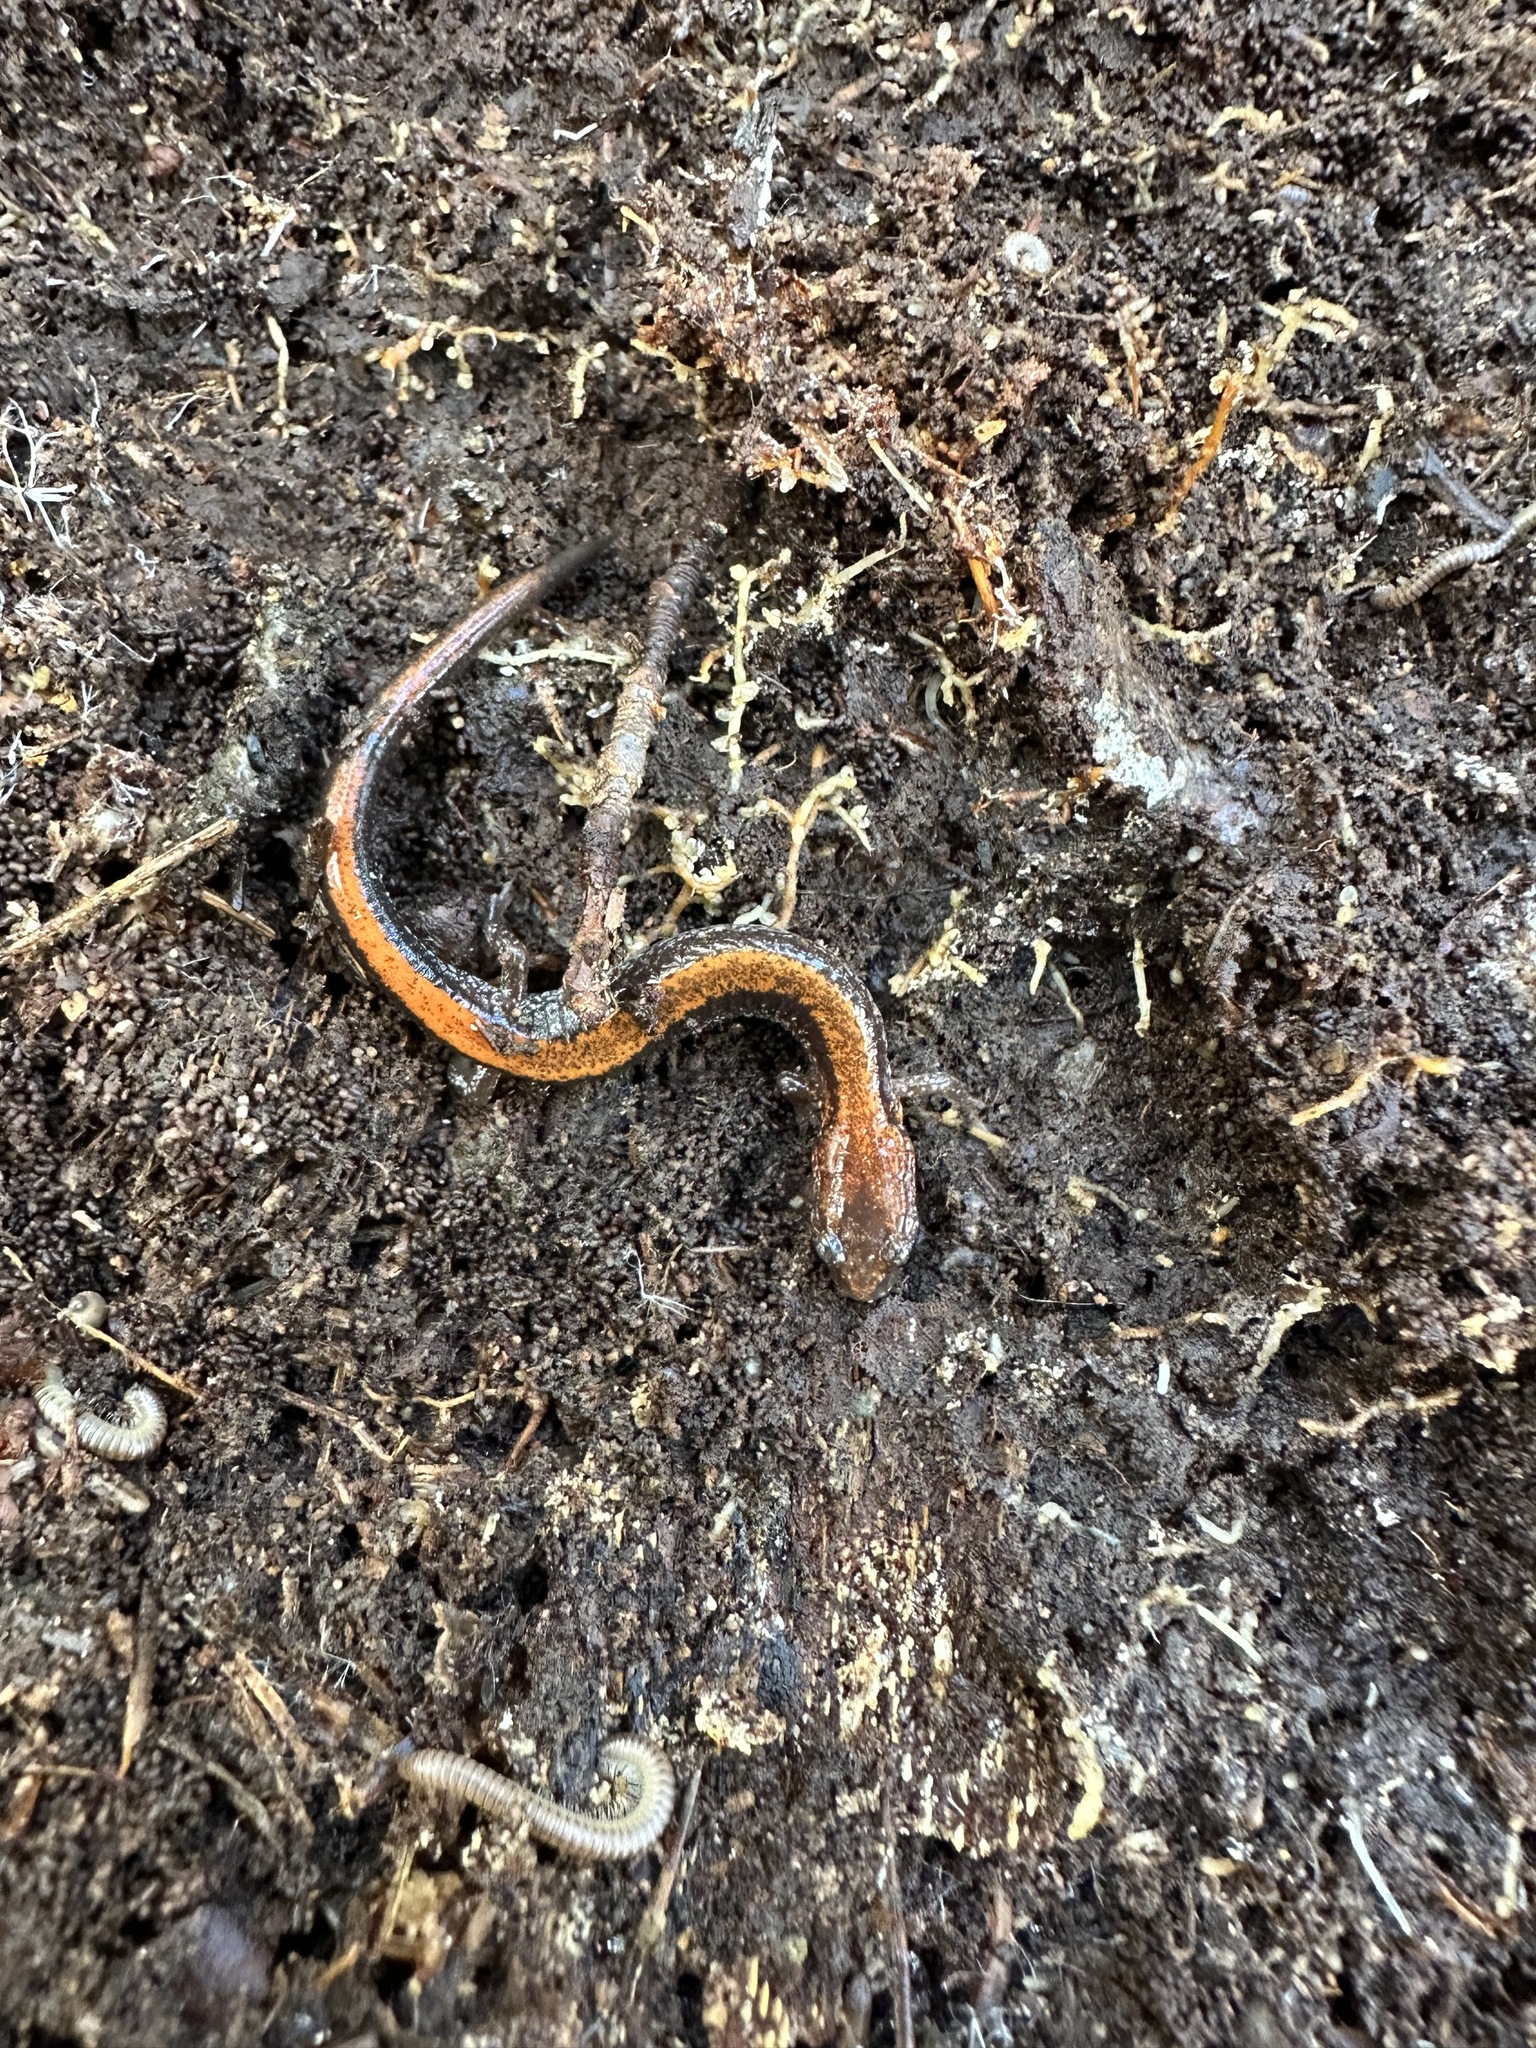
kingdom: Animalia
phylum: Chordata
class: Amphibia
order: Caudata
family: Plethodontidae
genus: Plethodon
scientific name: Plethodon cinereus
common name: Redback salamander
